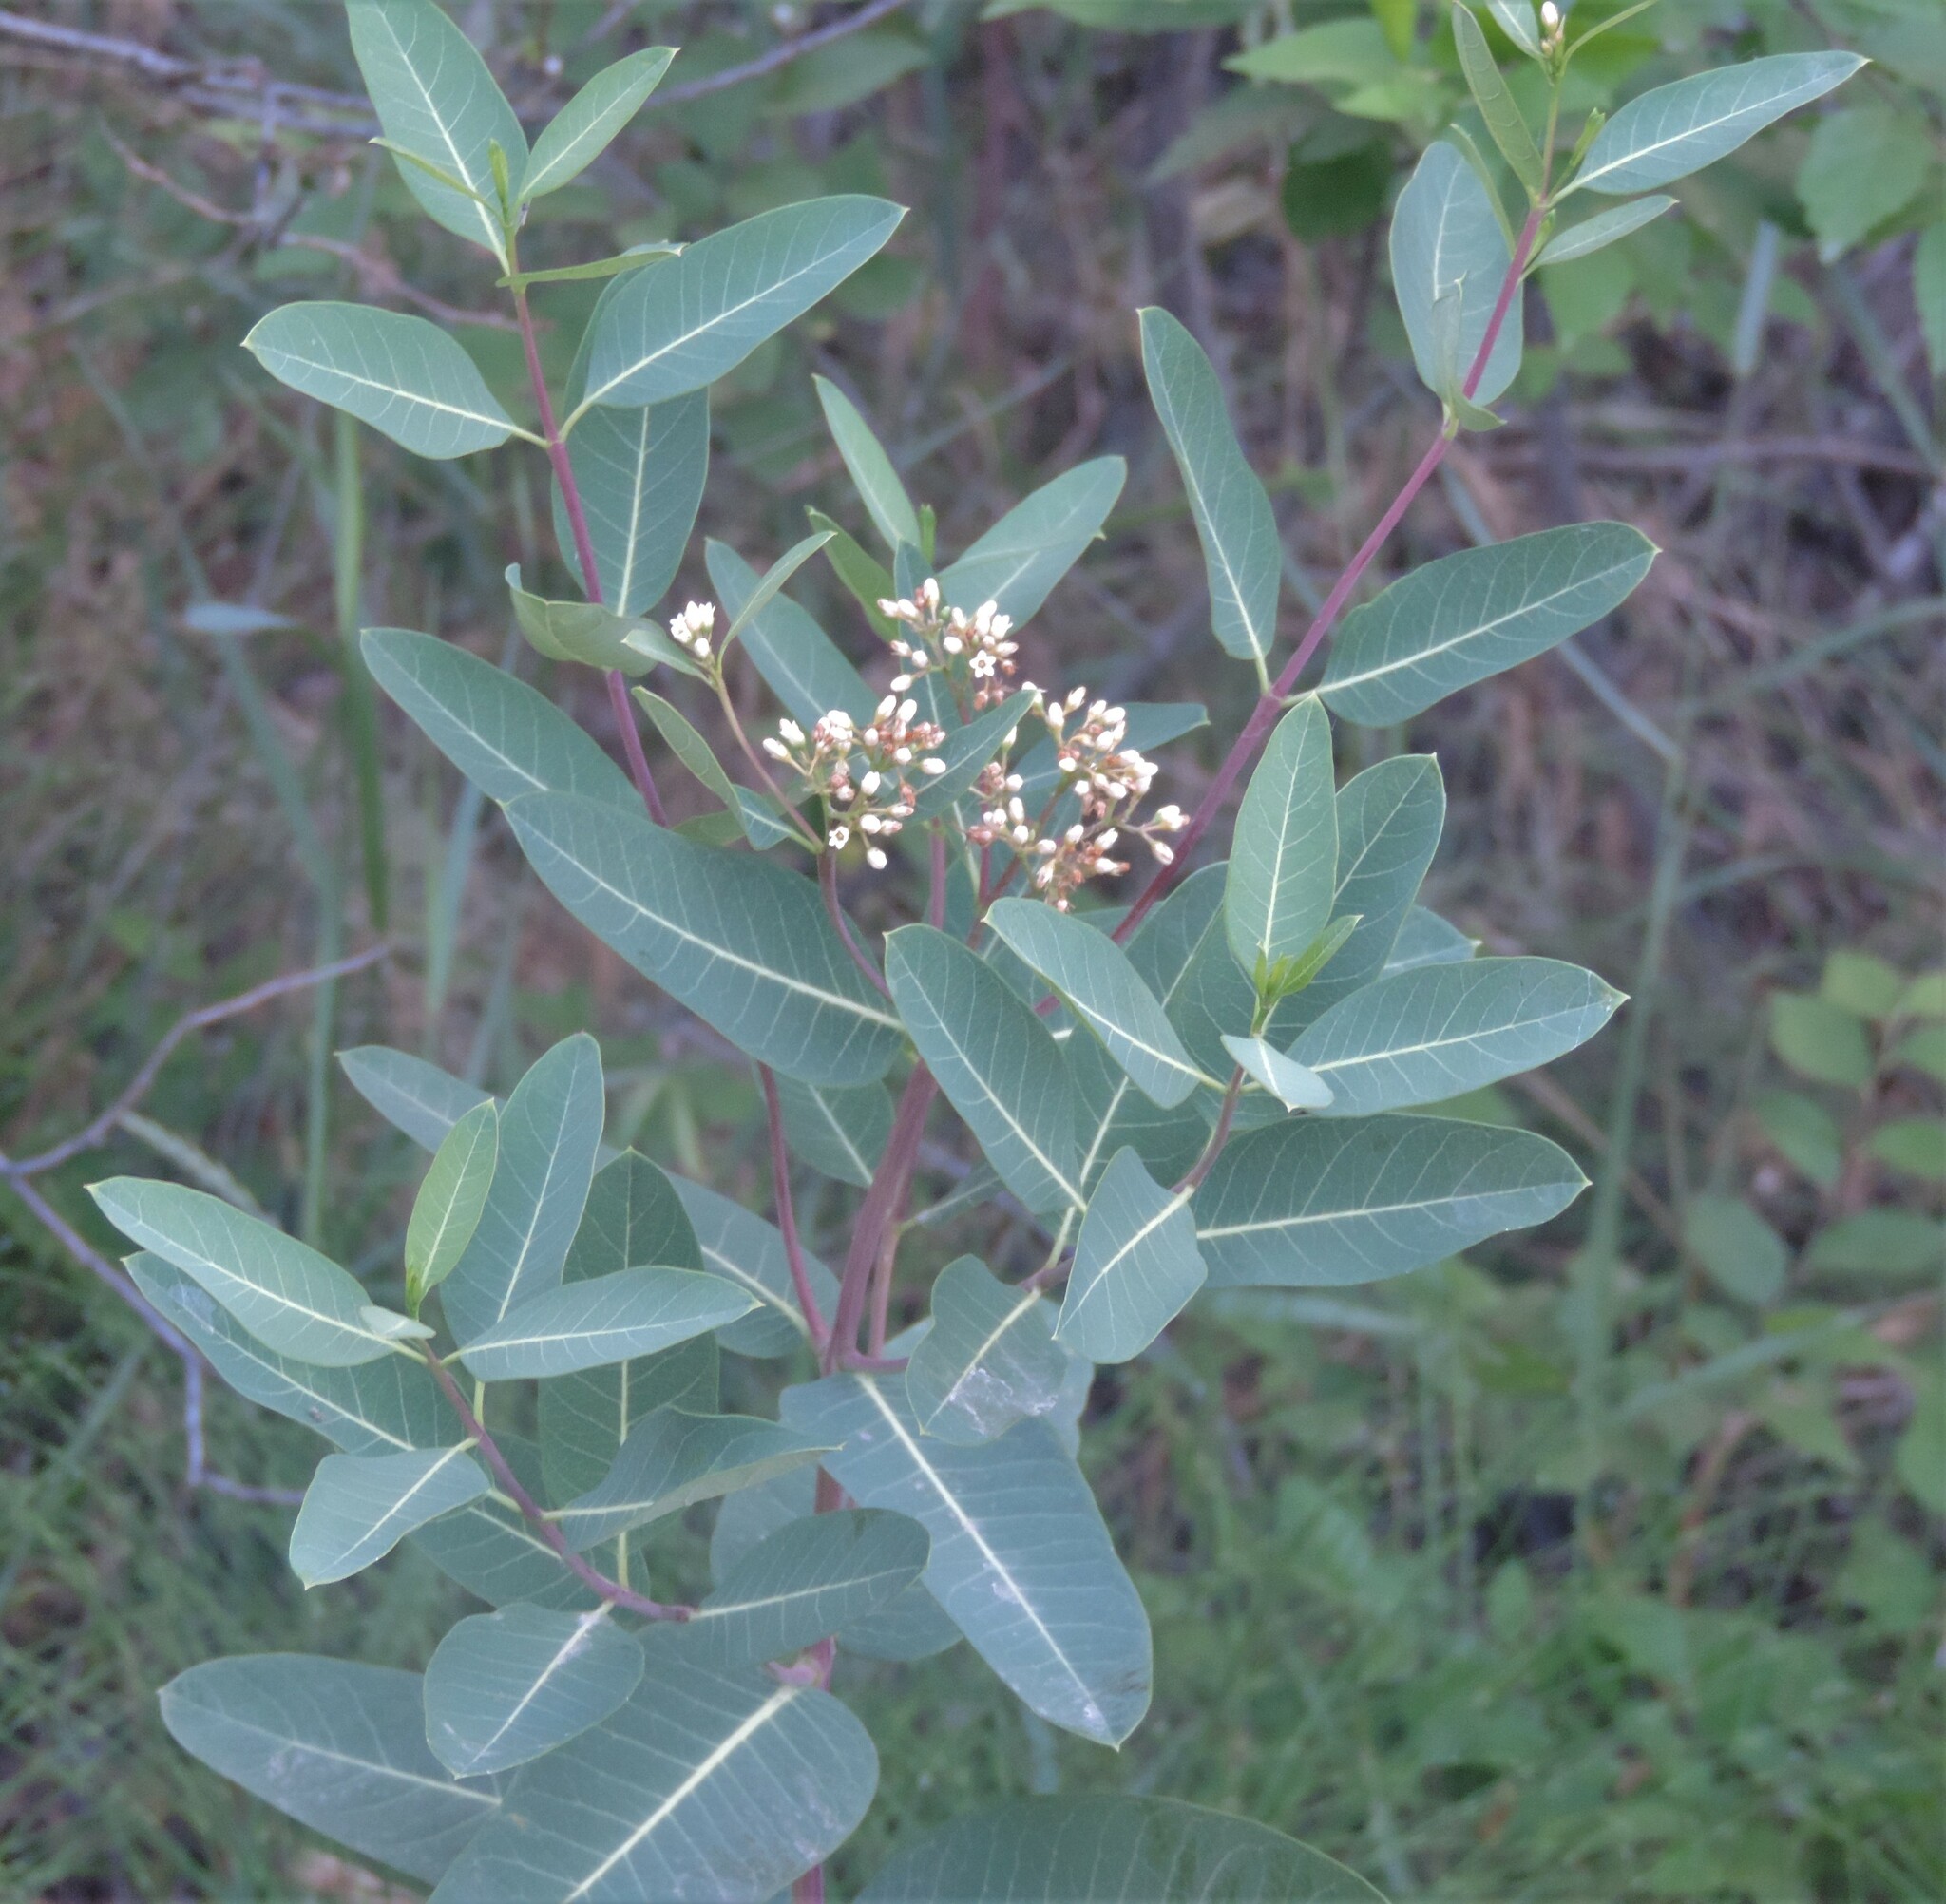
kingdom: Plantae
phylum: Tracheophyta
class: Magnoliopsida
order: Gentianales
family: Apocynaceae
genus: Apocynum
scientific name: Apocynum cannabinum
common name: Hemp dogbane
